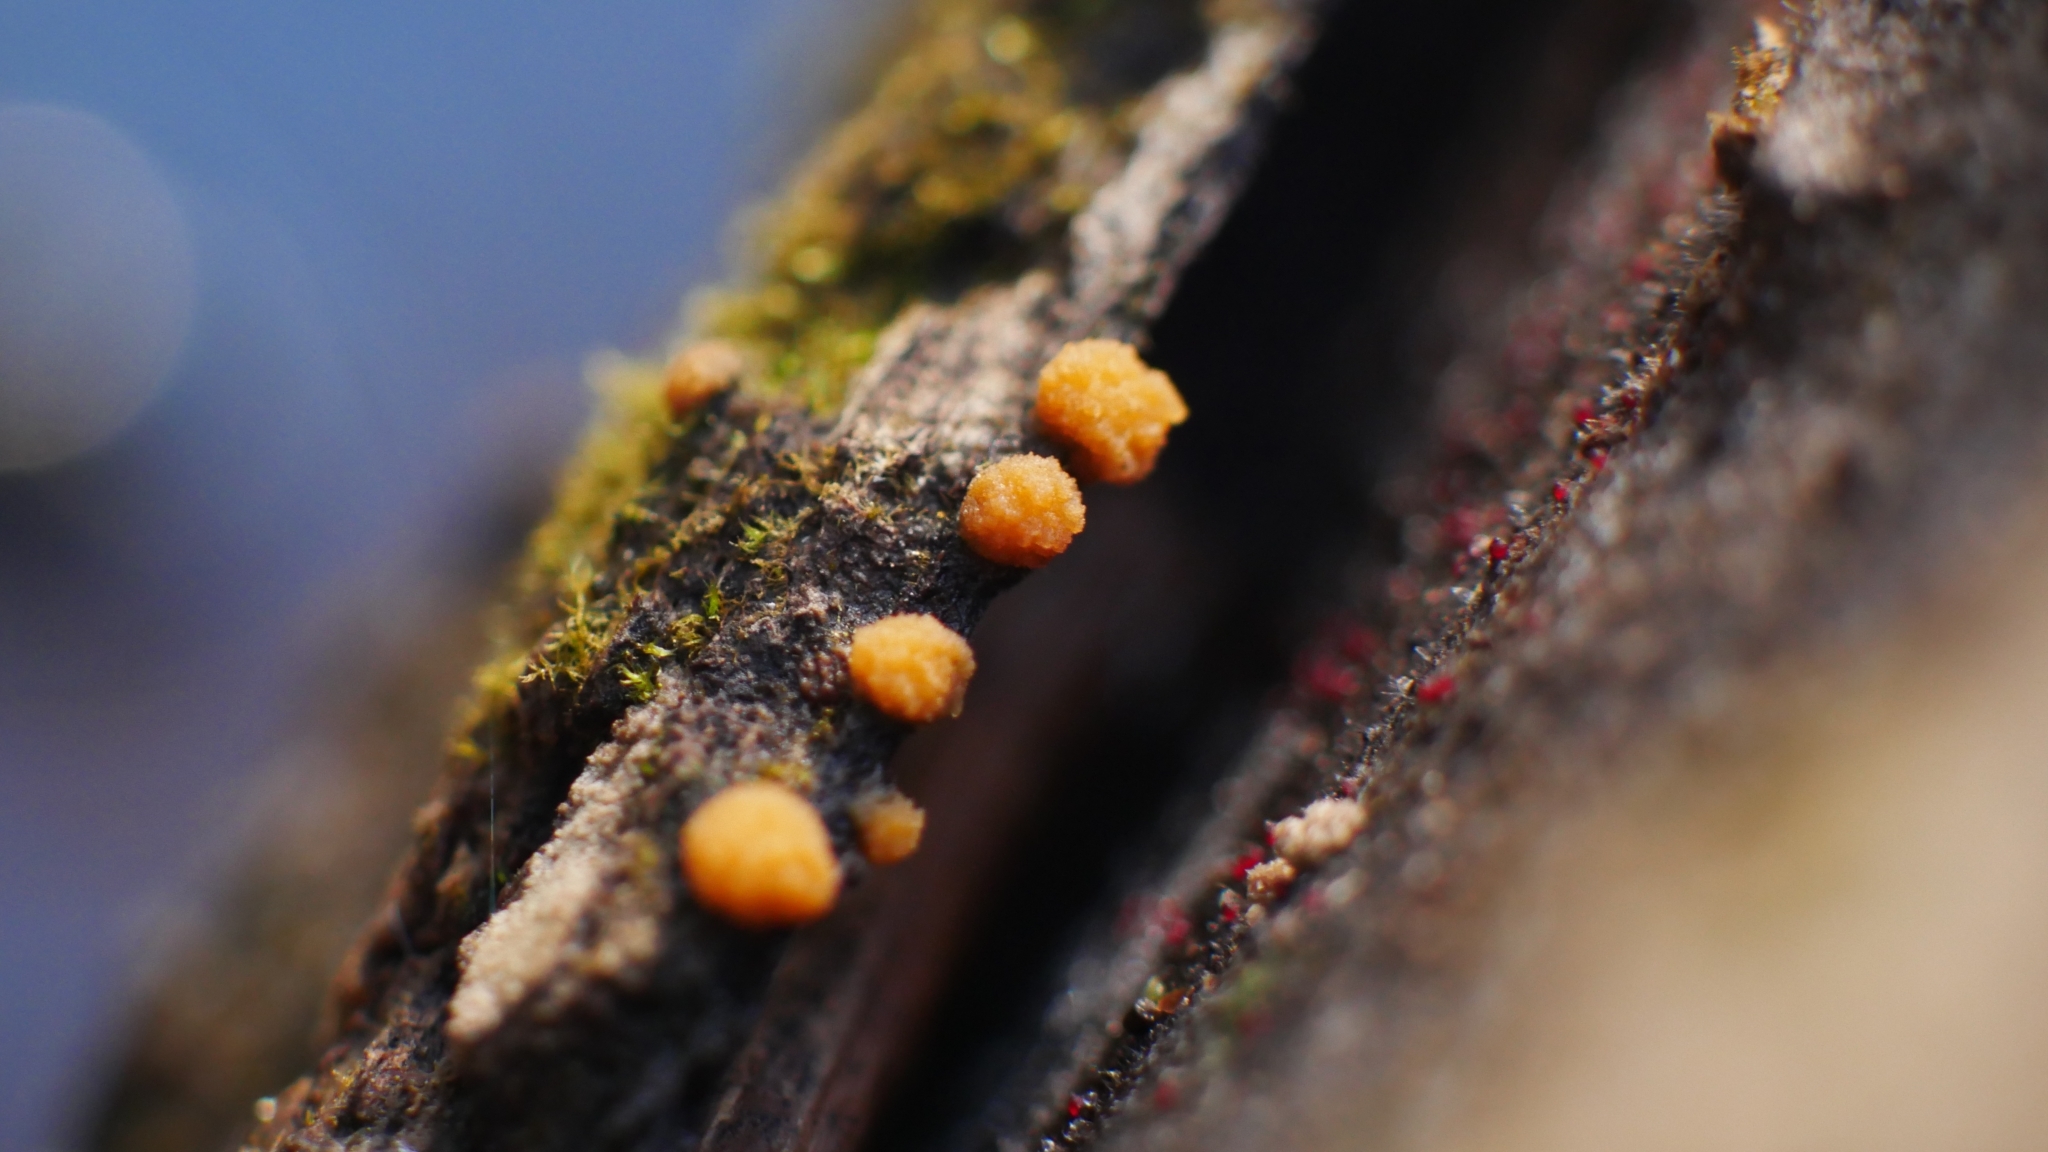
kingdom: Fungi
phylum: Ascomycota
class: Sordariomycetes
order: Hypocreales
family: Nectriaceae
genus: Nectria
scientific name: Nectria cinnabarina
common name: Coral spot
